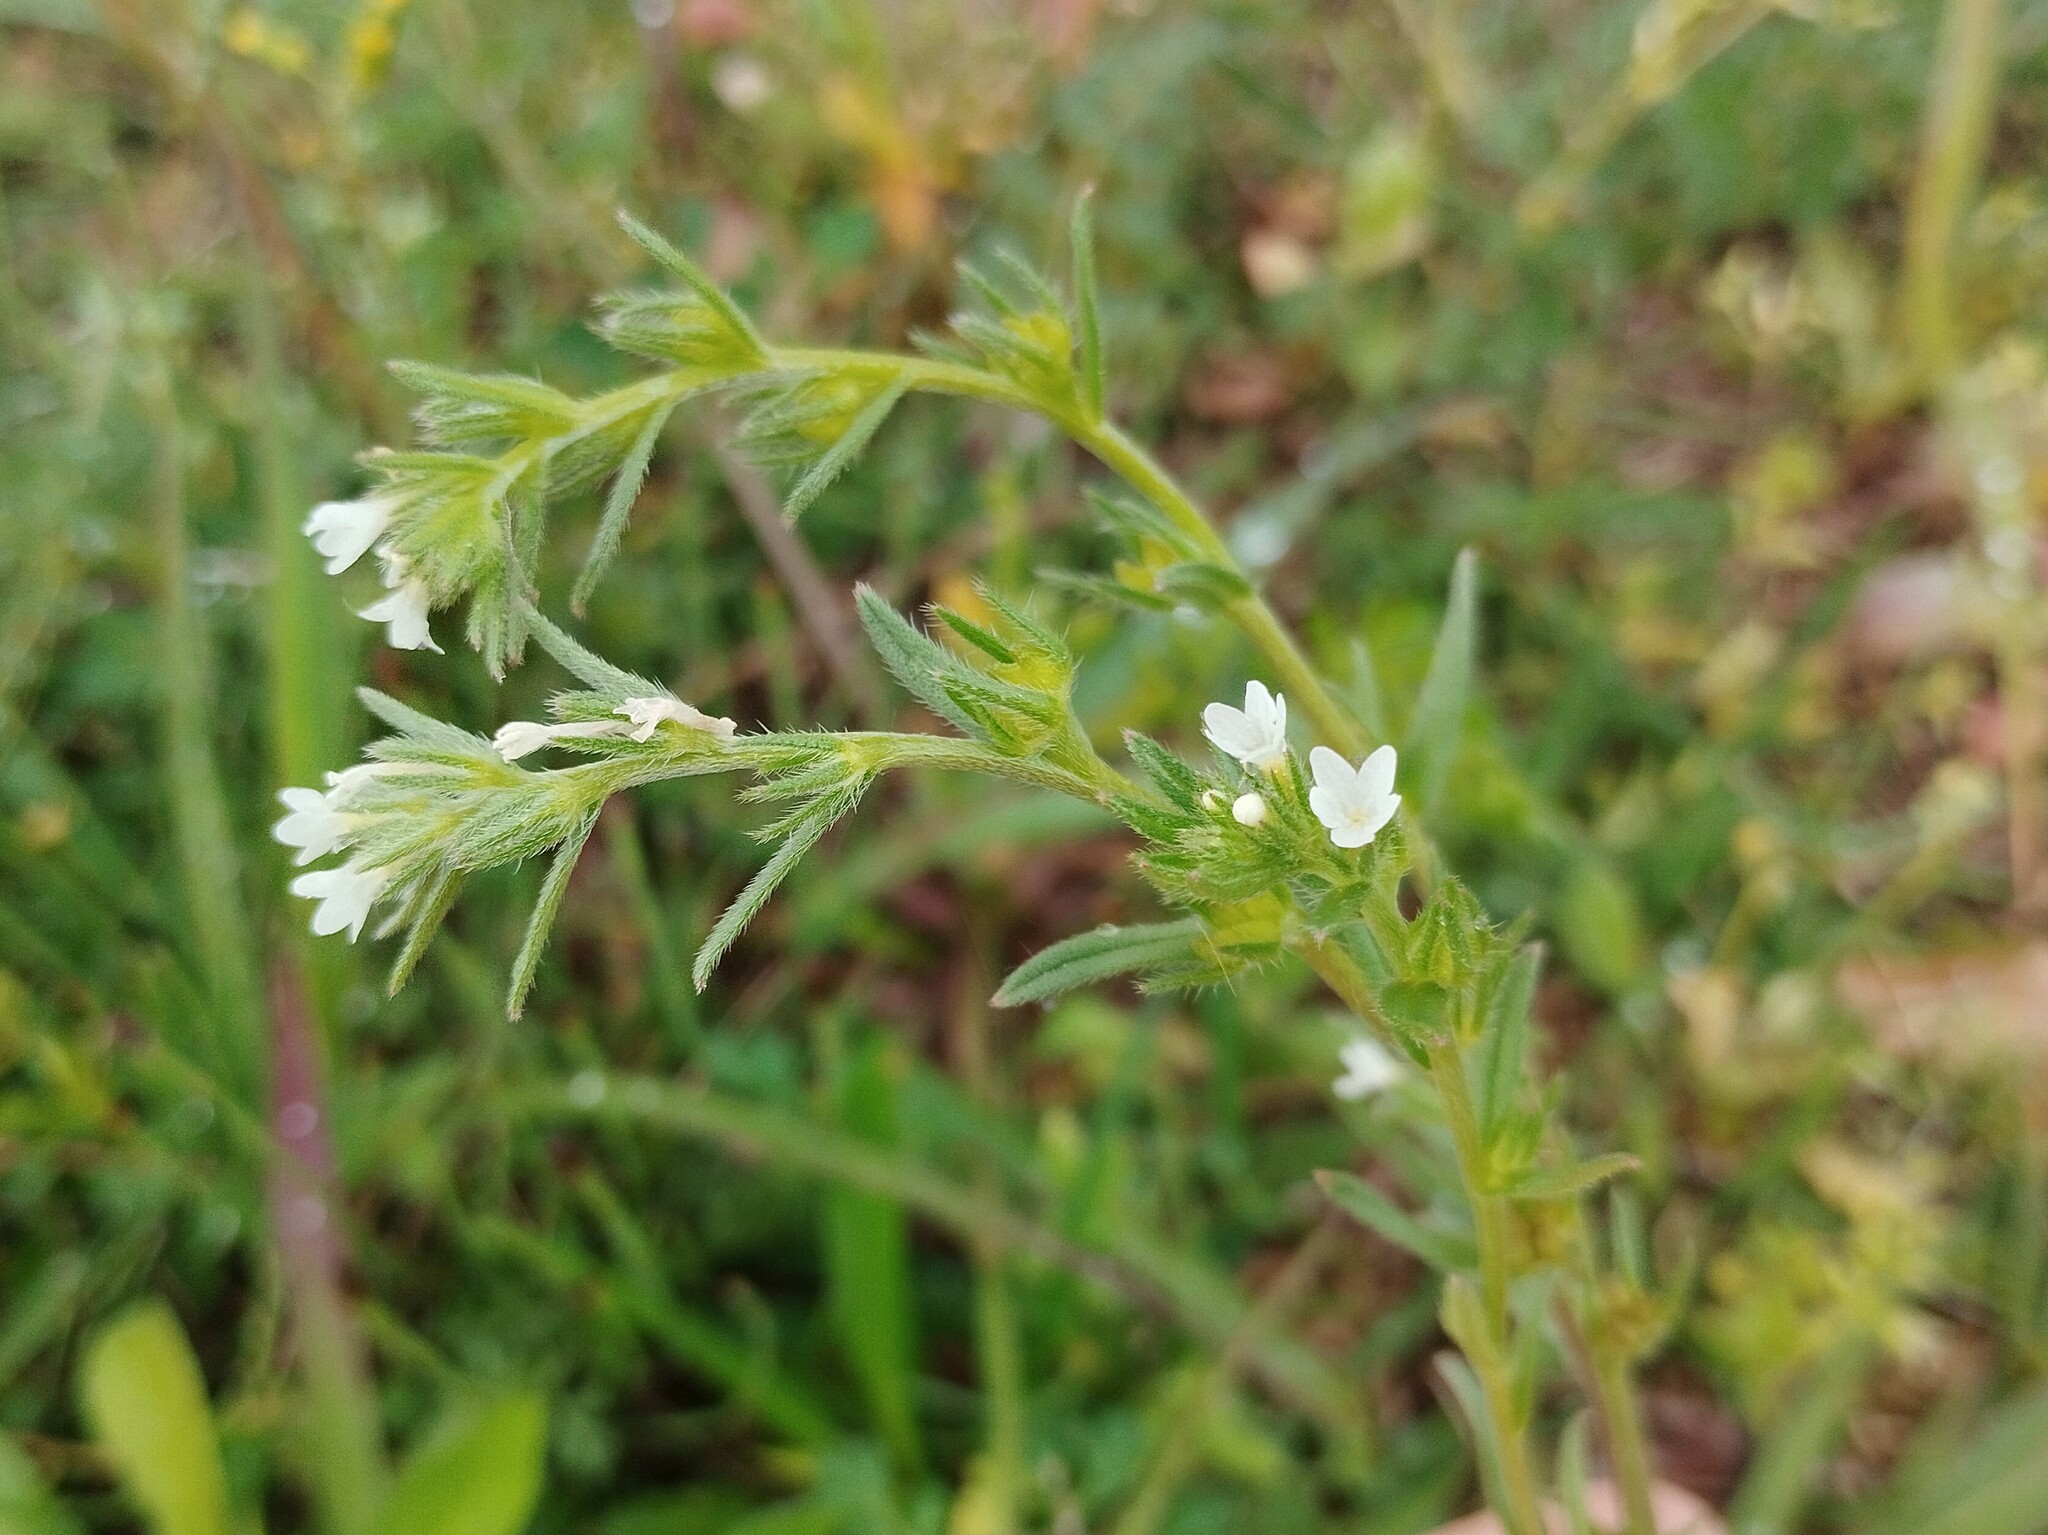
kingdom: Plantae
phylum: Tracheophyta
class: Magnoliopsida
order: Boraginales
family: Boraginaceae
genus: Buglossoides
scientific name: Buglossoides arvensis
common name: Corn gromwell
